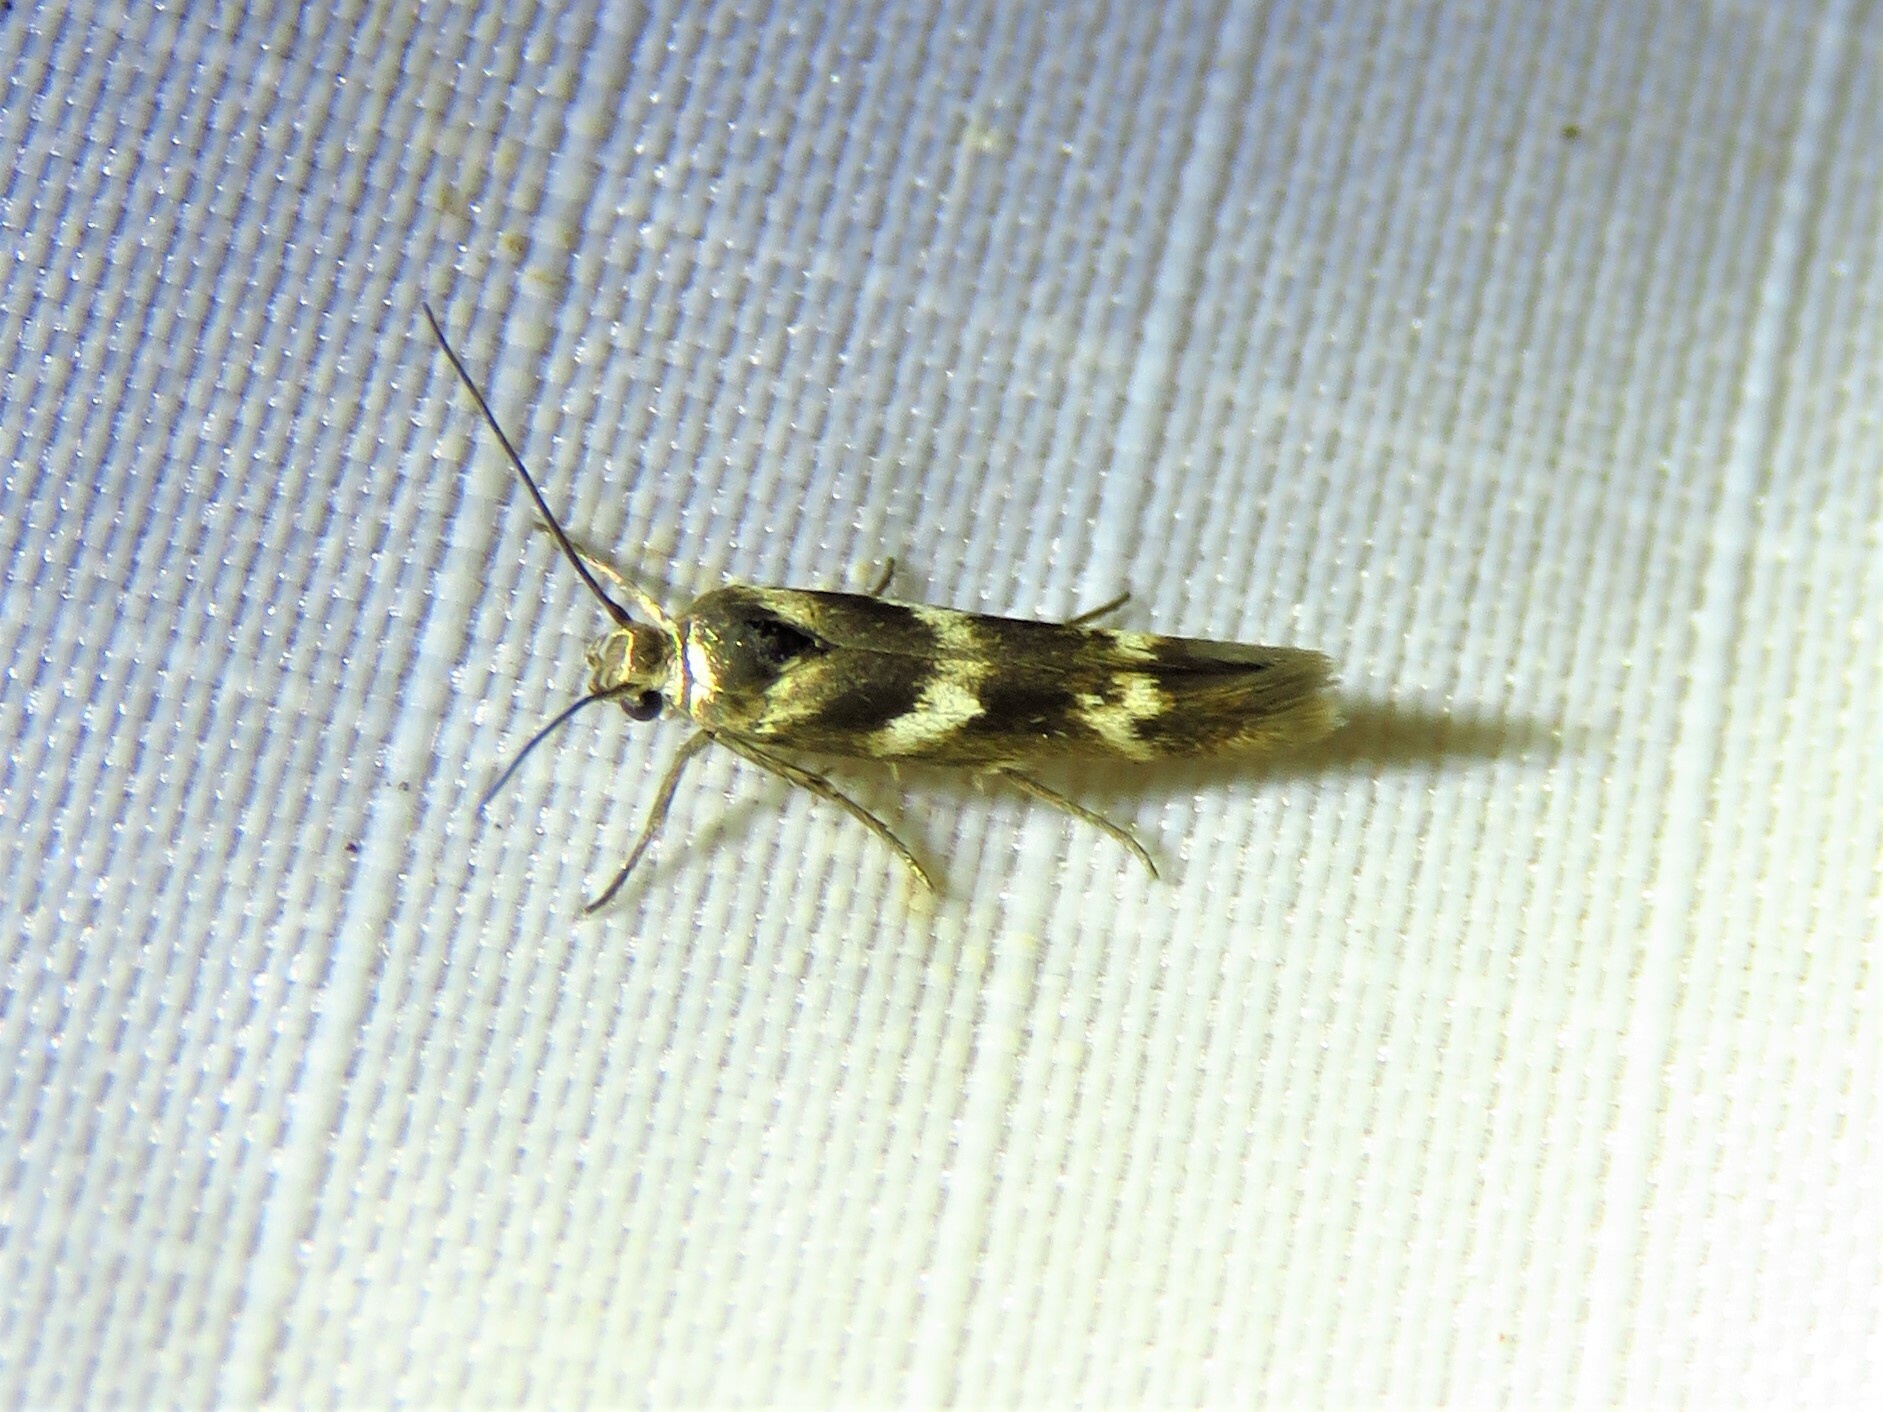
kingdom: Animalia
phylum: Arthropoda
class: Insecta
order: Lepidoptera
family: Scythrididae
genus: Scythris
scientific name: Scythris trivinctella
